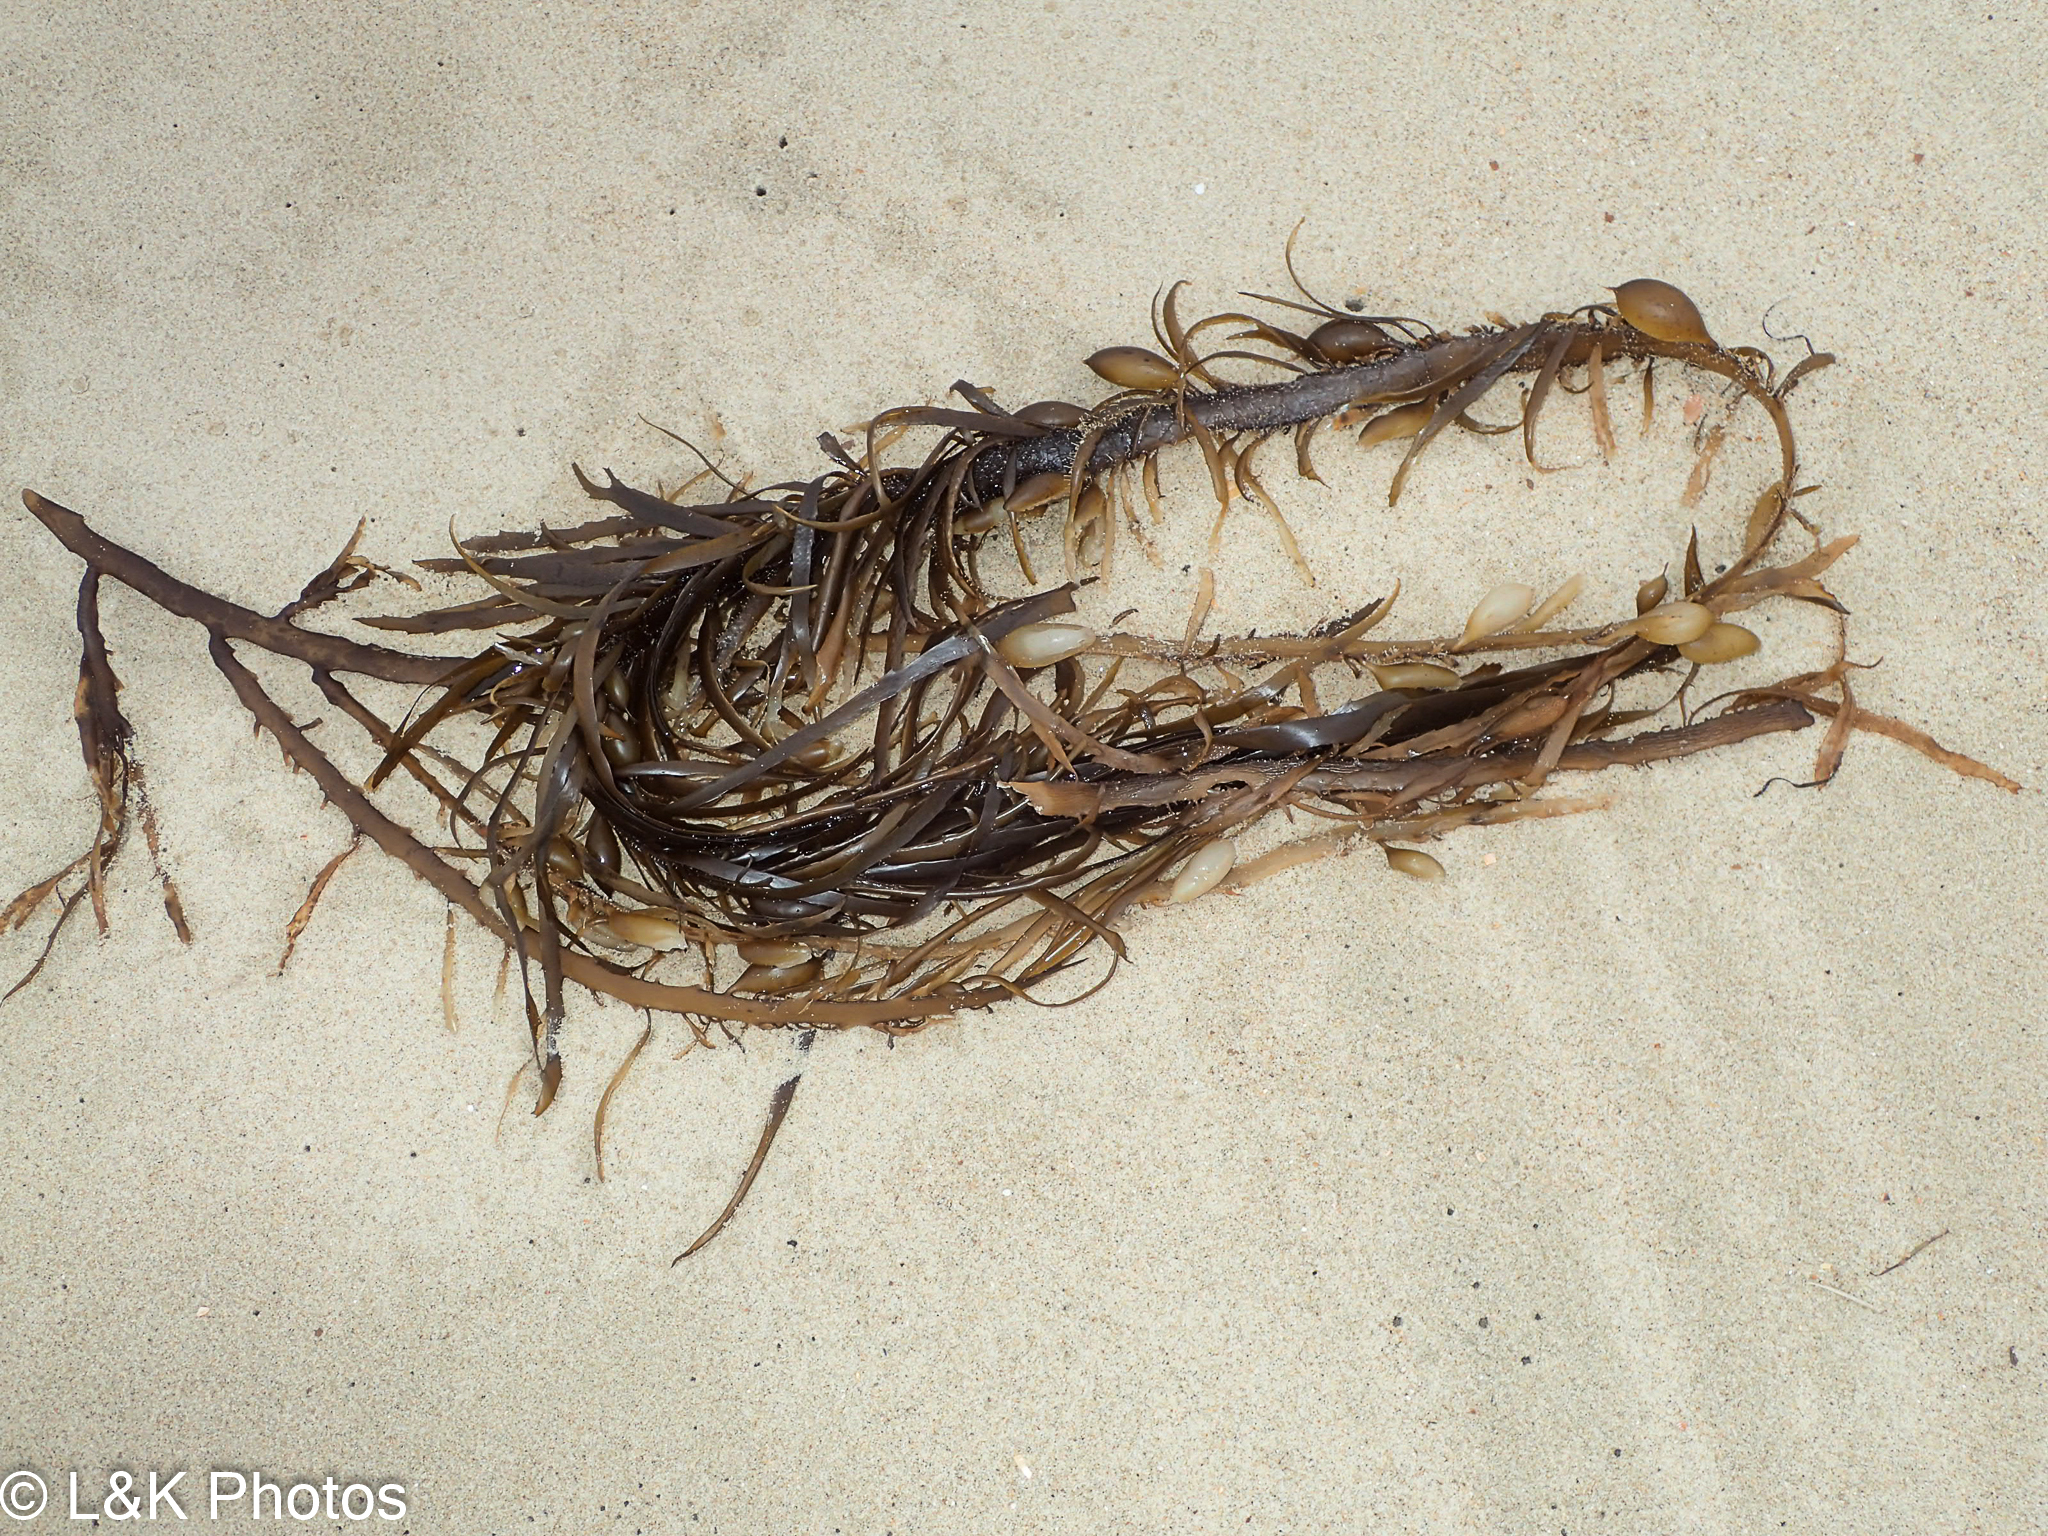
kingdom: Chromista
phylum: Ochrophyta
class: Phaeophyceae
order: Fucales
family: Seirococcaceae
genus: Phyllospora
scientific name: Phyllospora
